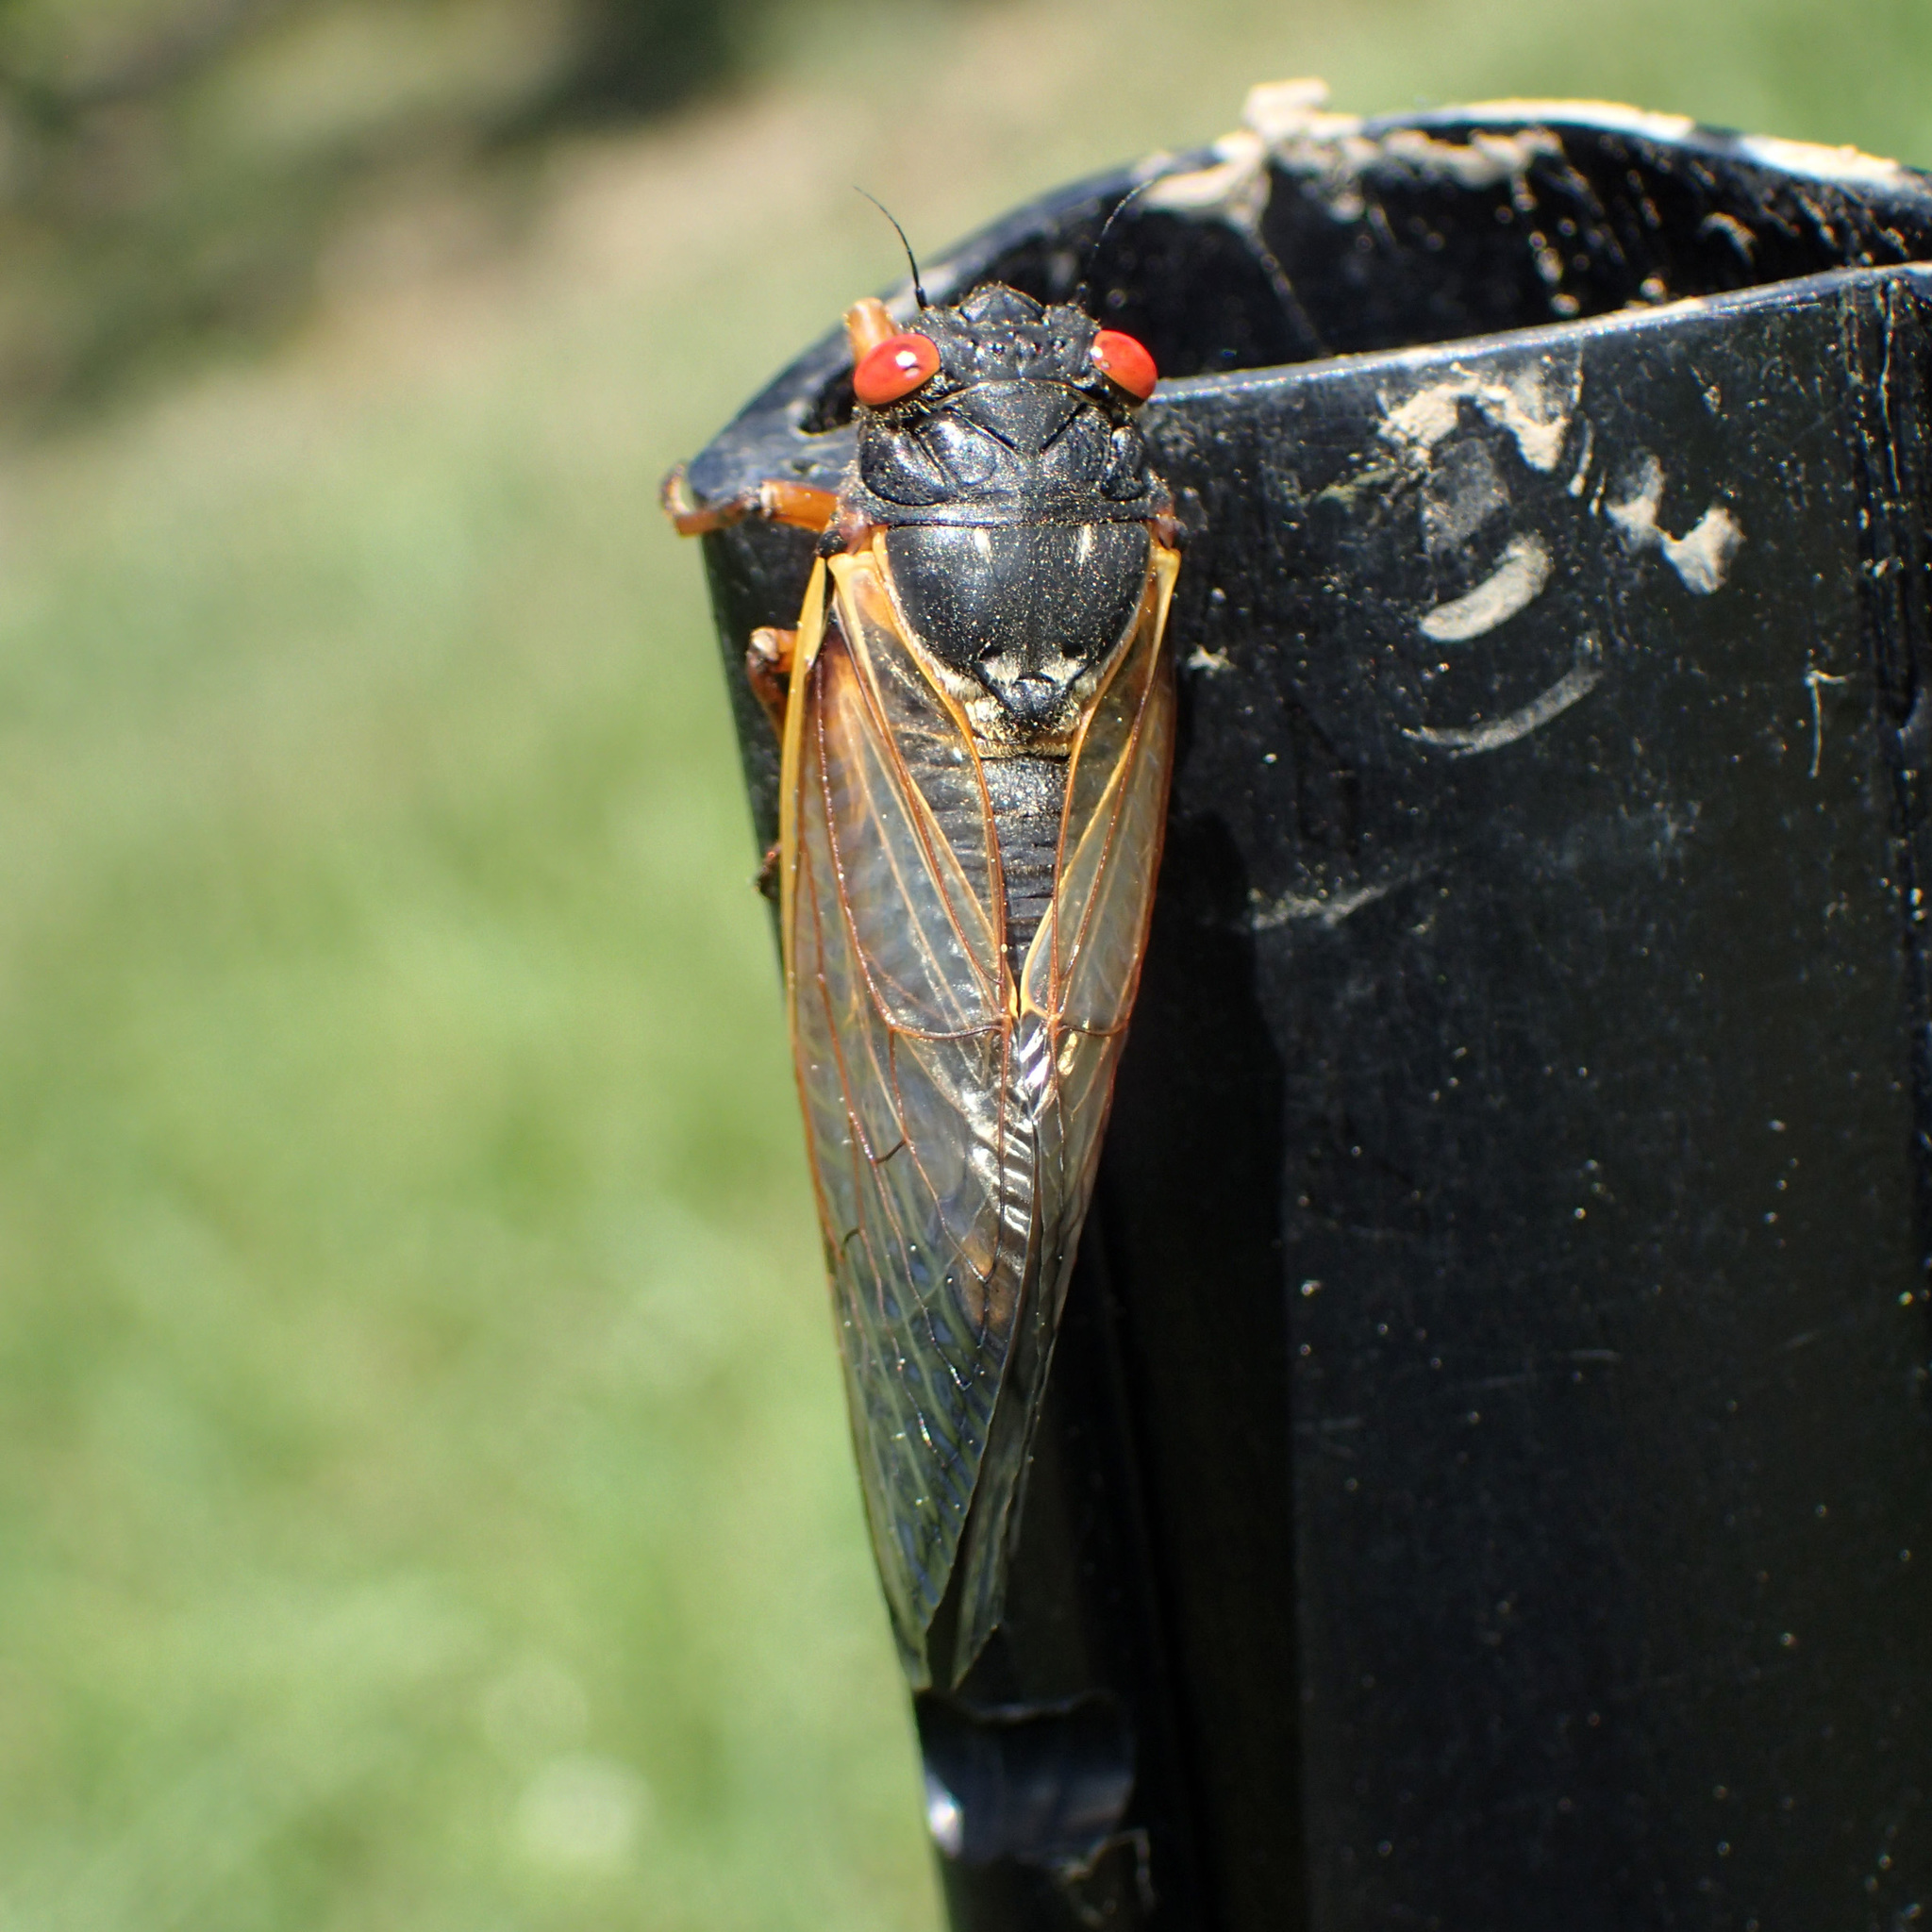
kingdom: Animalia
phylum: Arthropoda
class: Insecta
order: Hemiptera
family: Cicadidae
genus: Magicicada
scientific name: Magicicada
